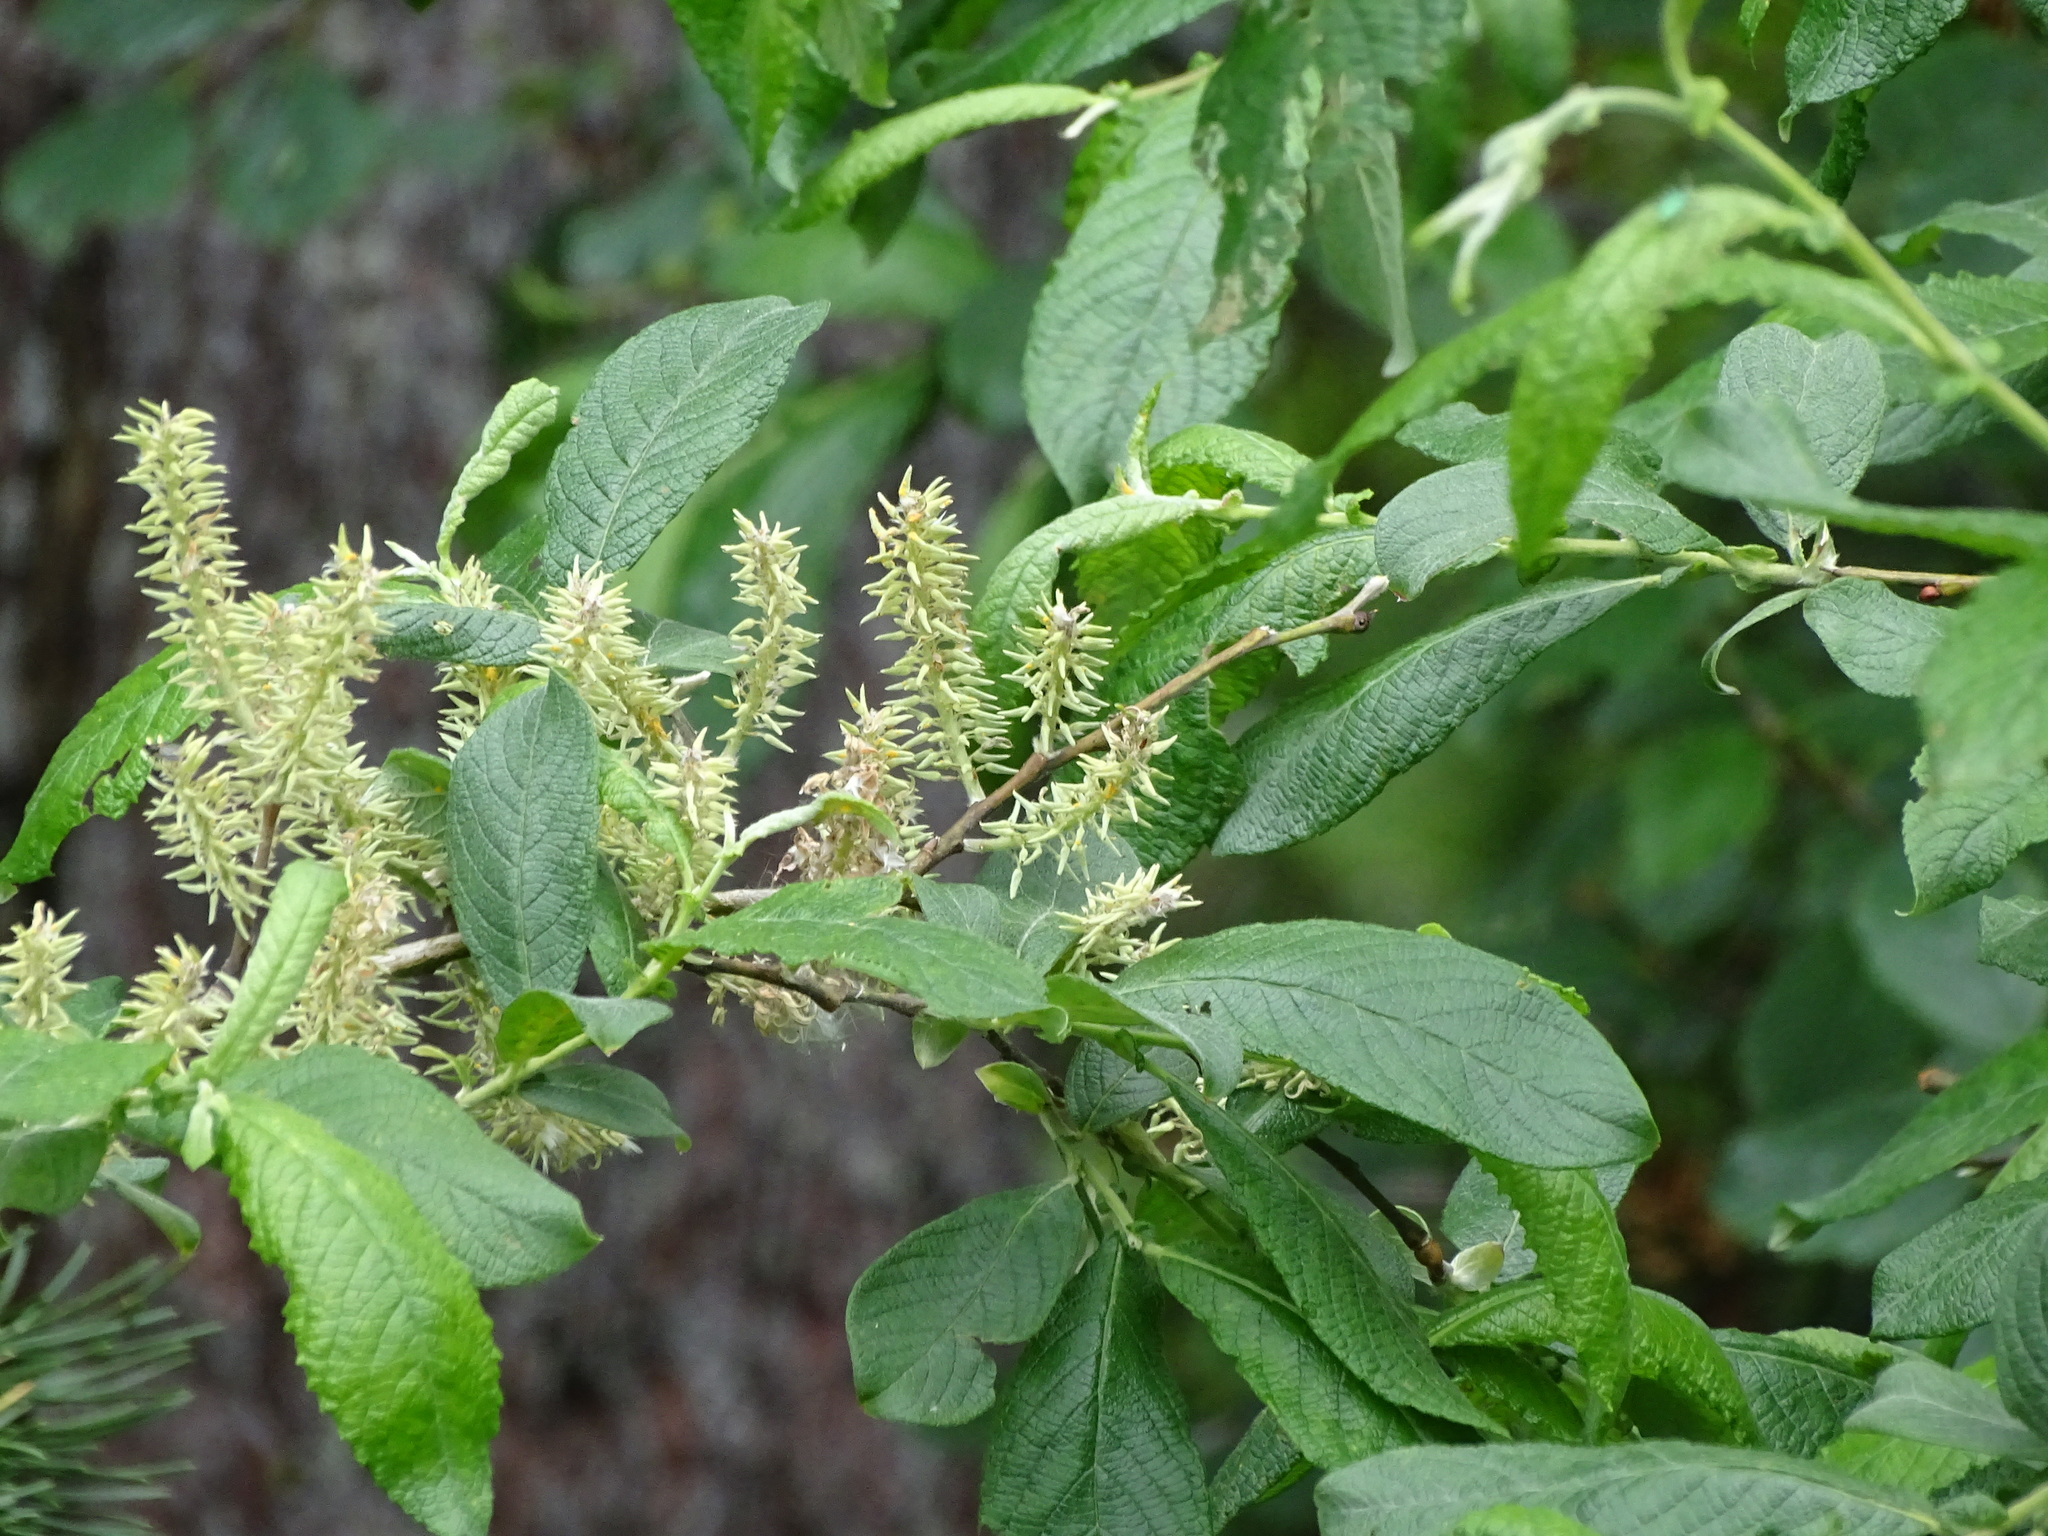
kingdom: Plantae
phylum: Tracheophyta
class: Magnoliopsida
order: Malpighiales
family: Salicaceae
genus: Salix
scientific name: Salix appendiculata
